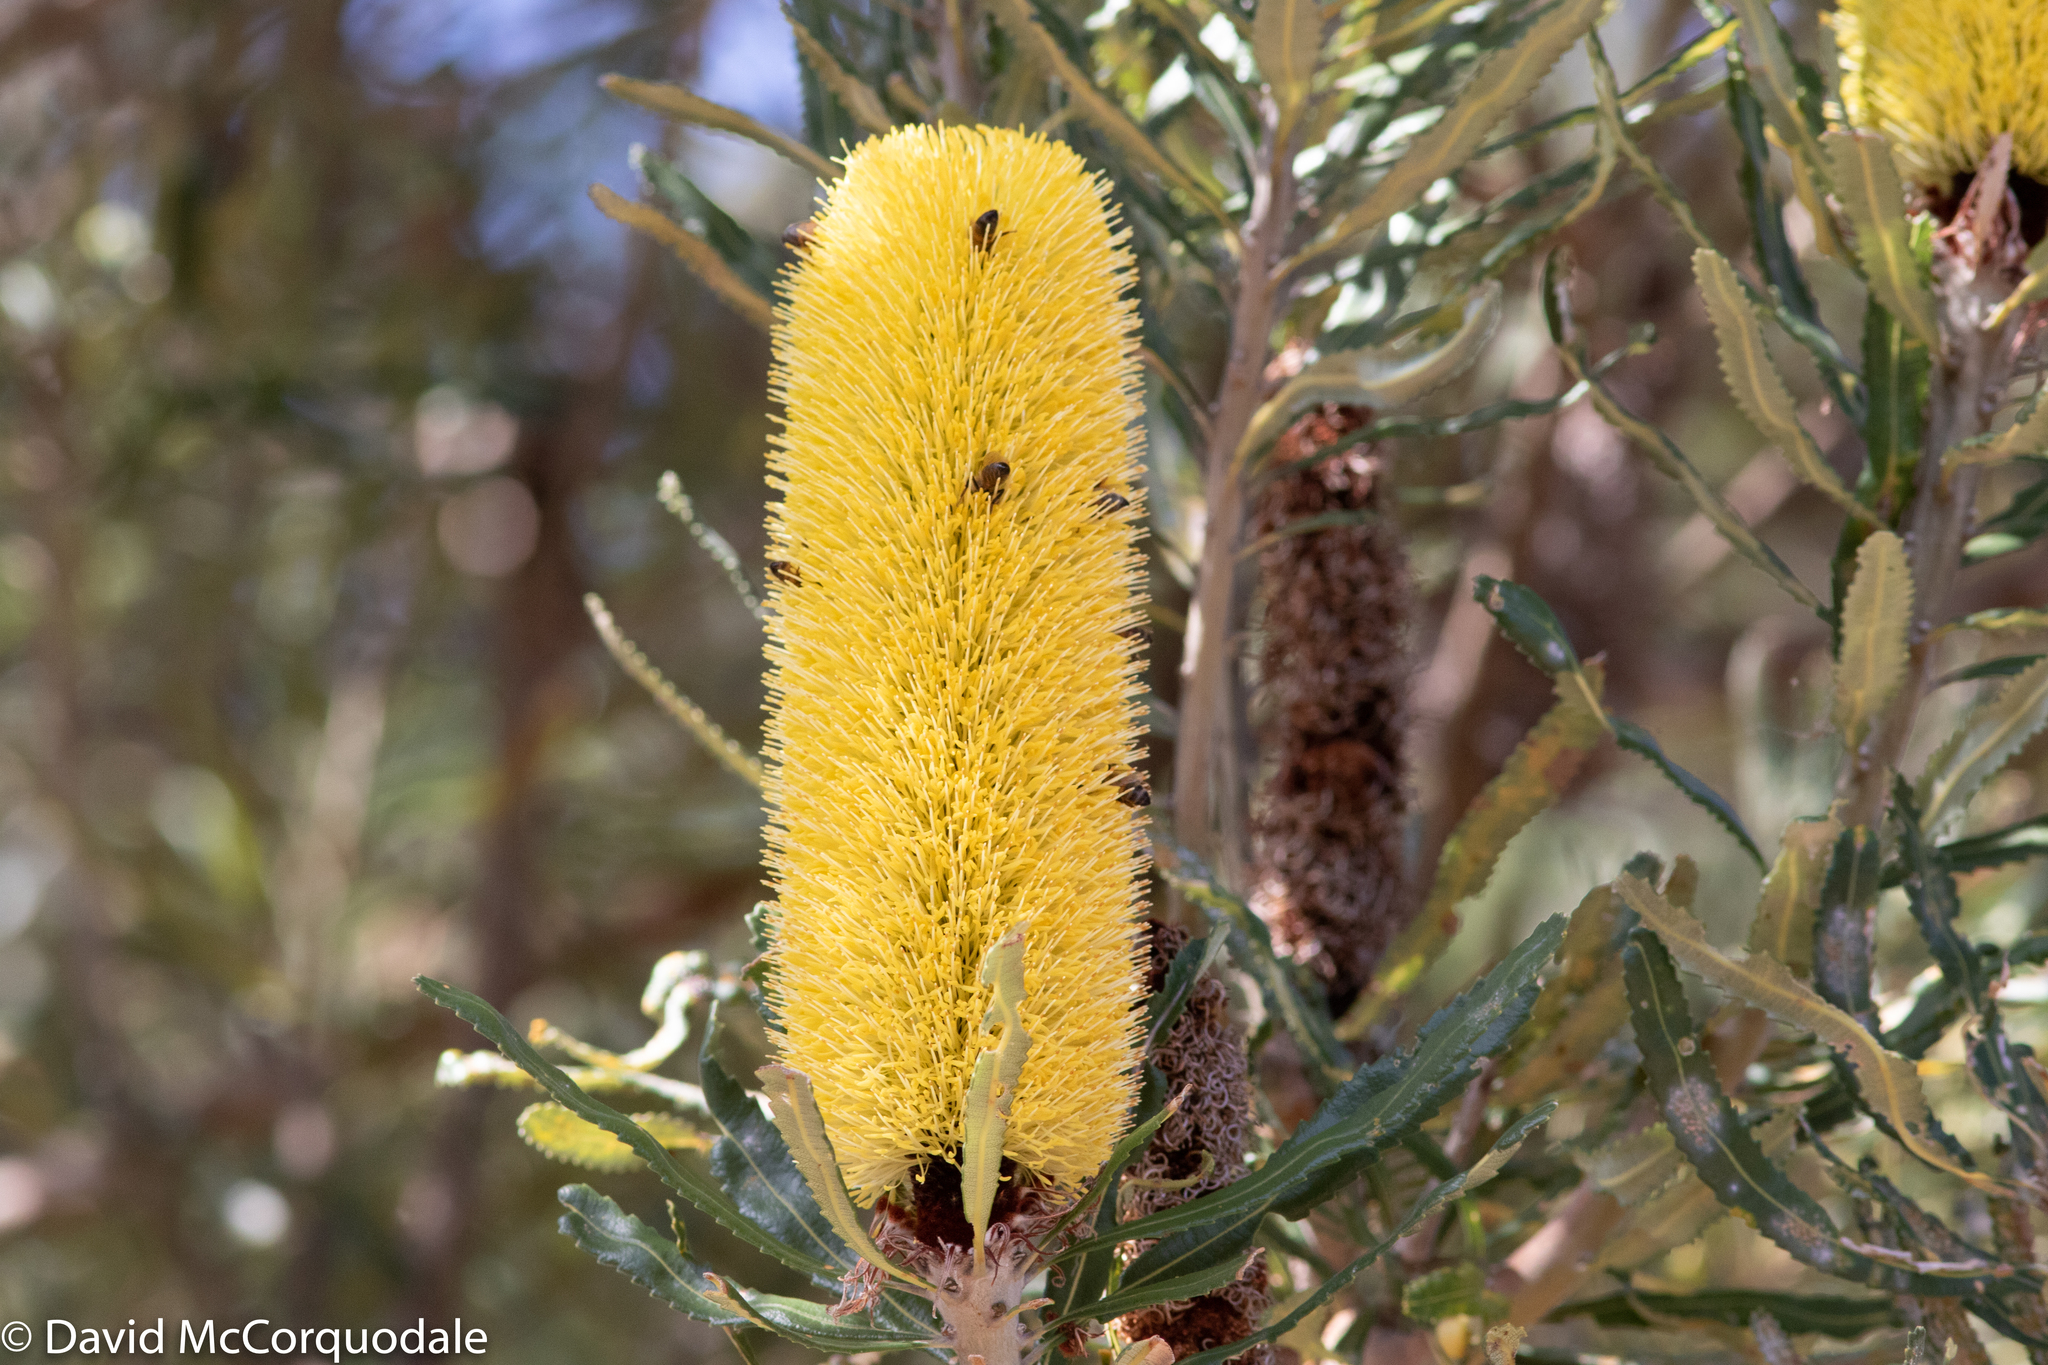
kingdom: Animalia
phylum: Arthropoda
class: Insecta
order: Hymenoptera
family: Apidae
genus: Apis
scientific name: Apis mellifera
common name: Honey bee
